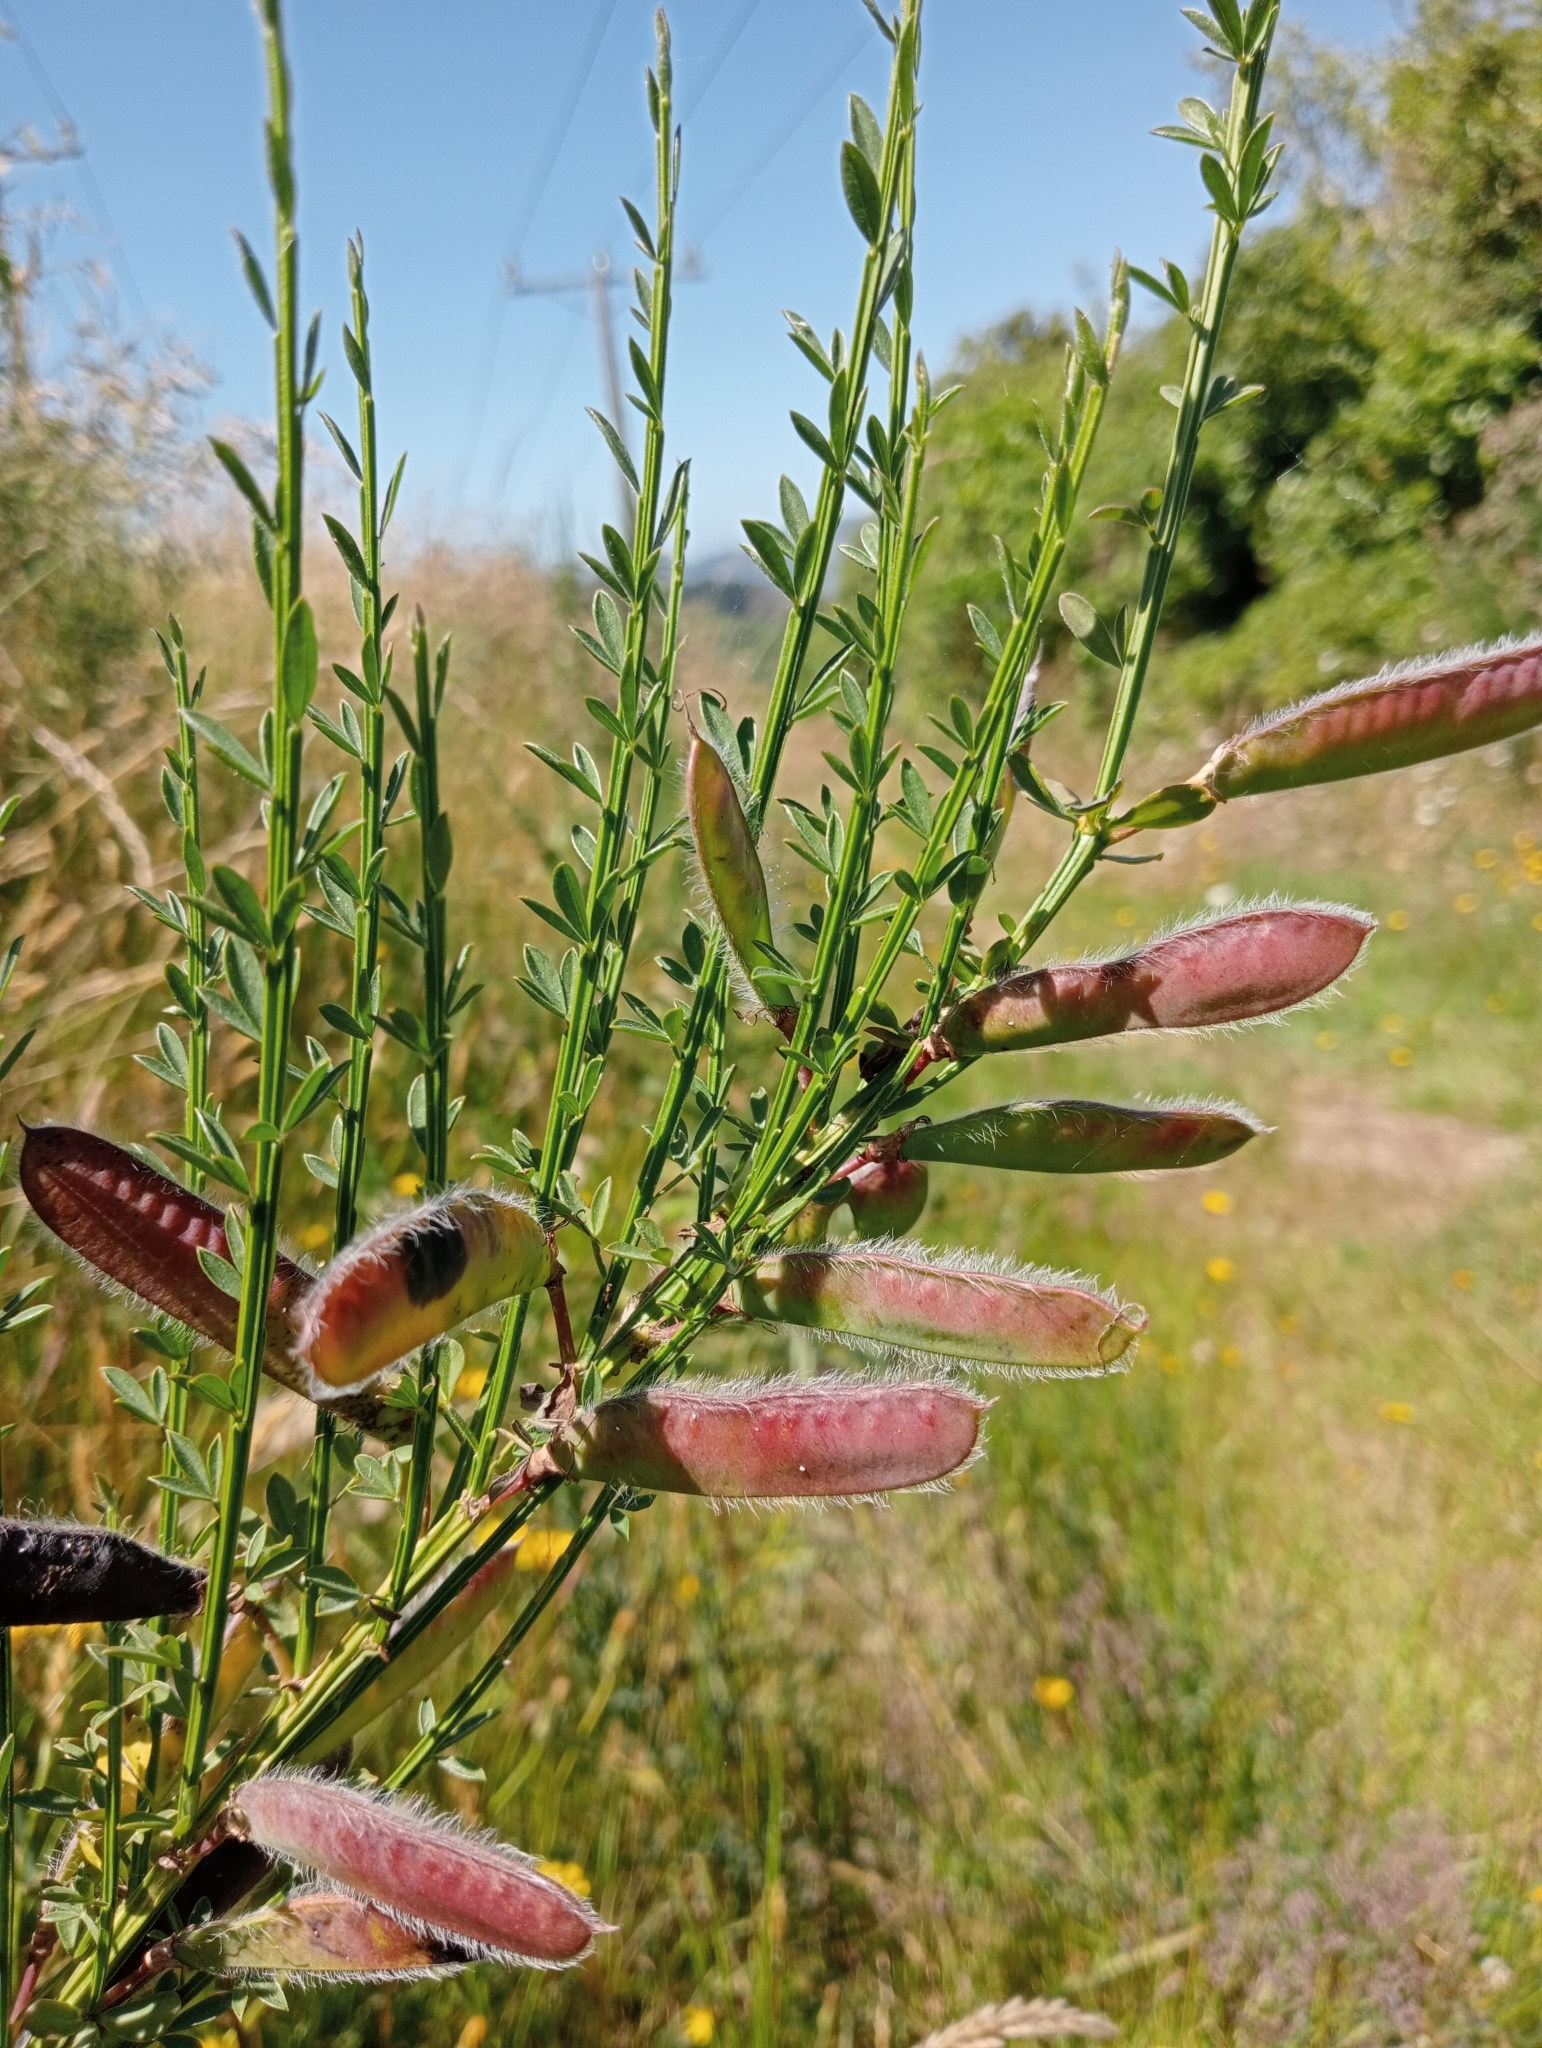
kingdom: Plantae
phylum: Tracheophyta
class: Magnoliopsida
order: Fabales
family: Fabaceae
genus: Cytisus
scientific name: Cytisus scoparius
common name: Scotch broom
